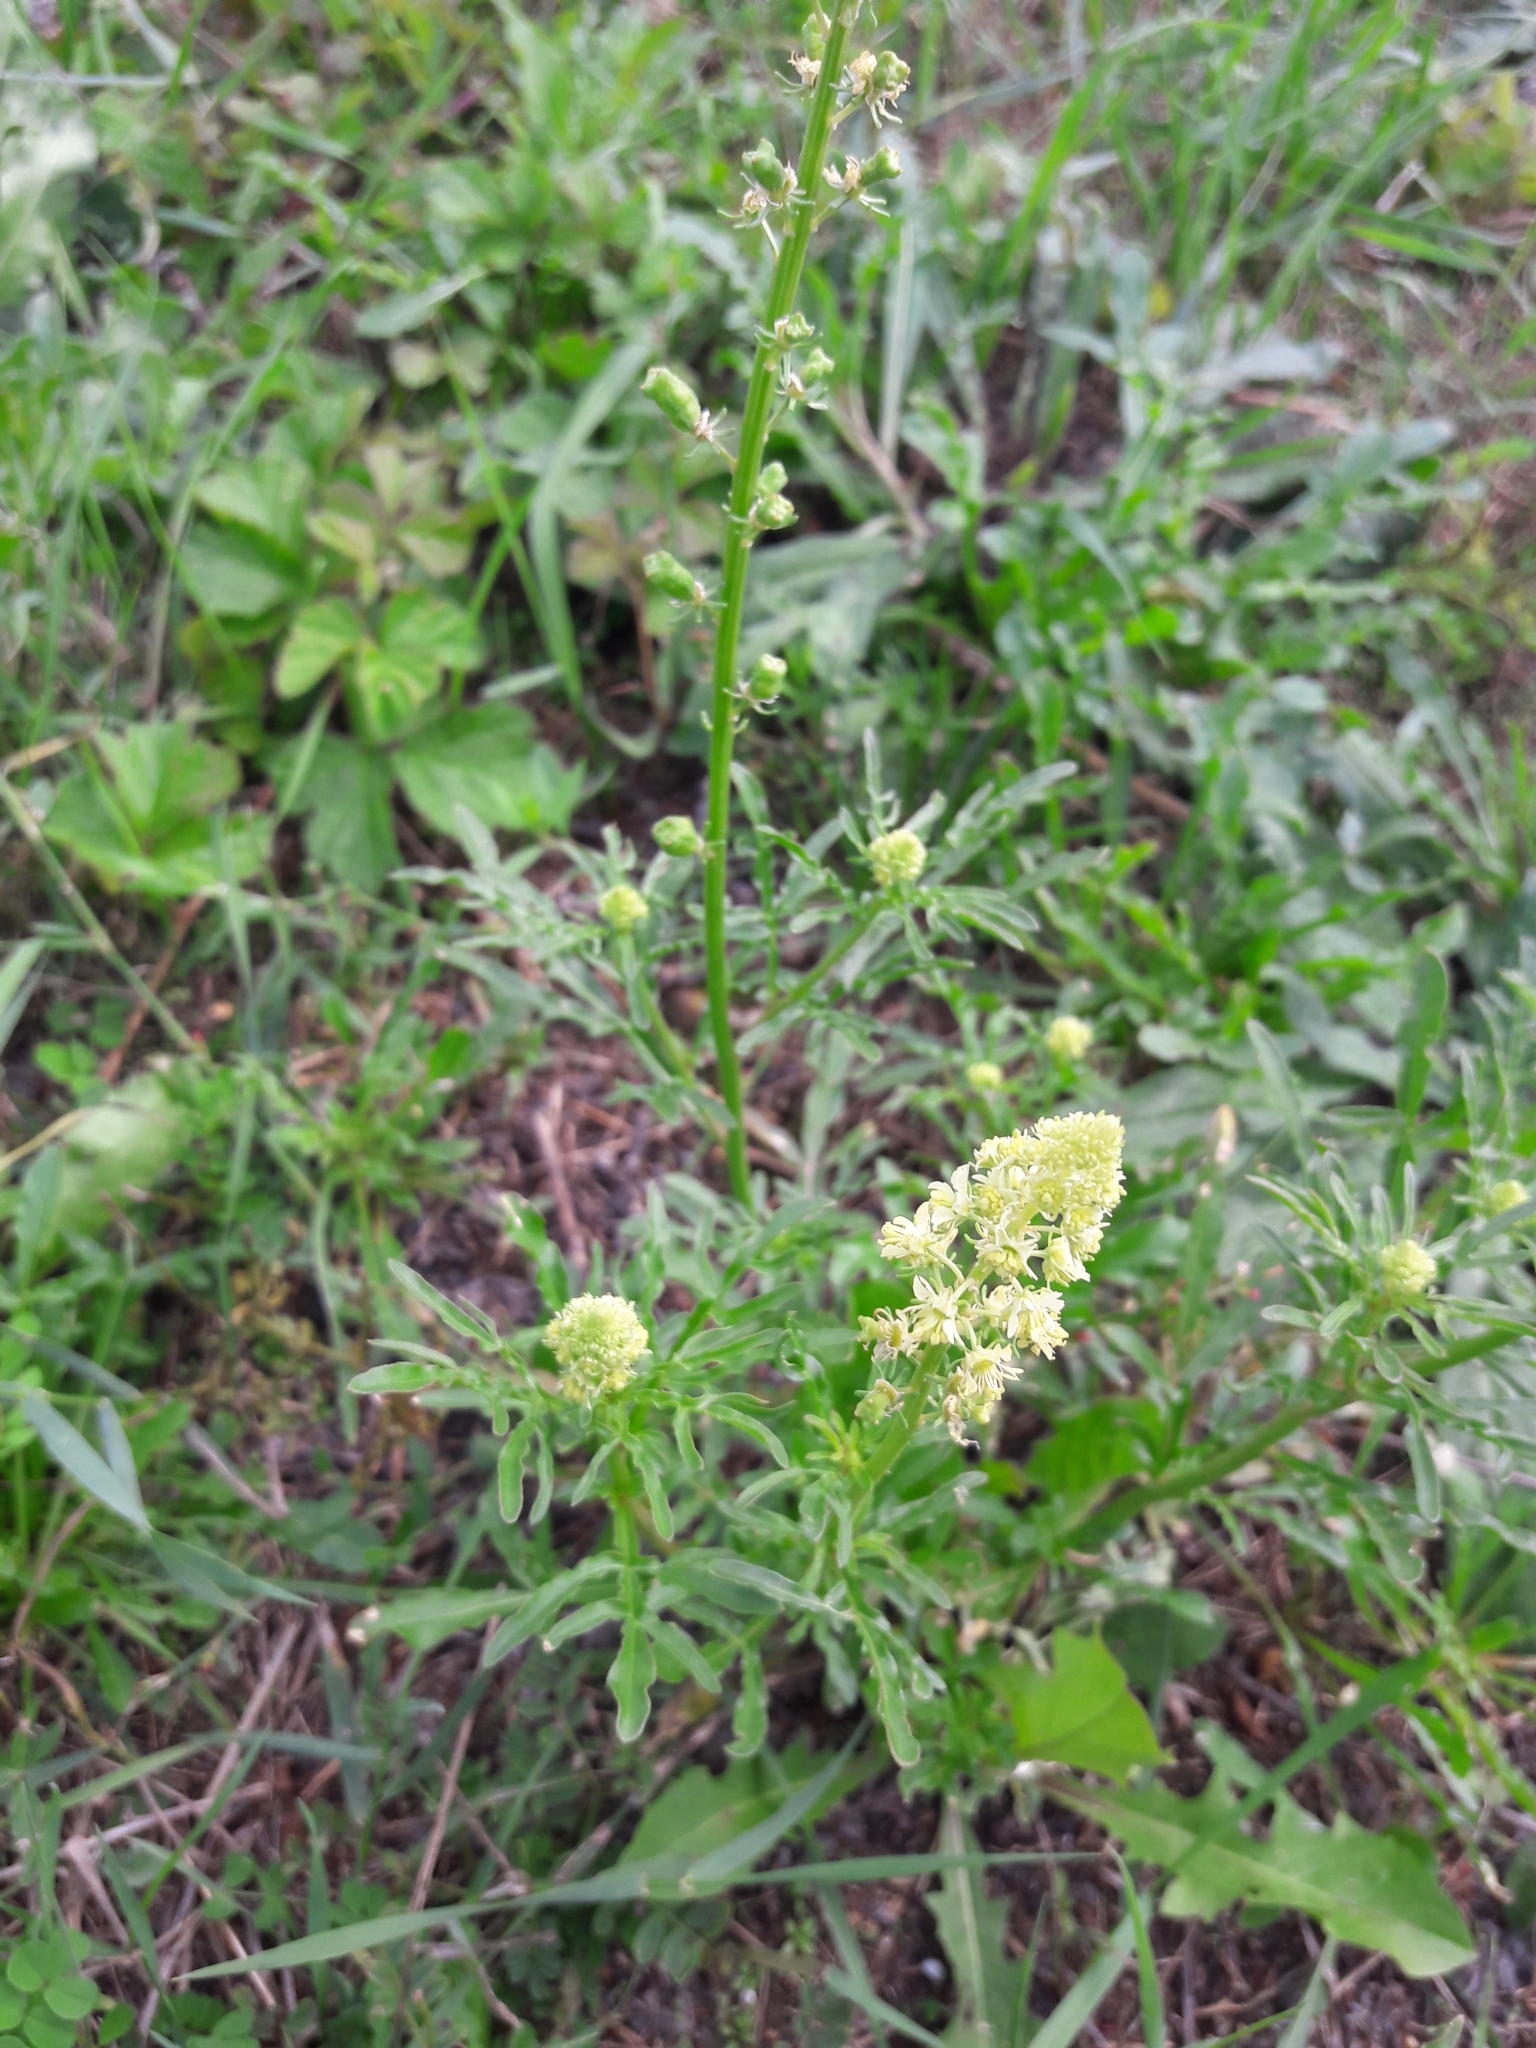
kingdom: Plantae
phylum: Tracheophyta
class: Magnoliopsida
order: Brassicales
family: Resedaceae
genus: Reseda
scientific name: Reseda lutea
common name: Wild mignonette
